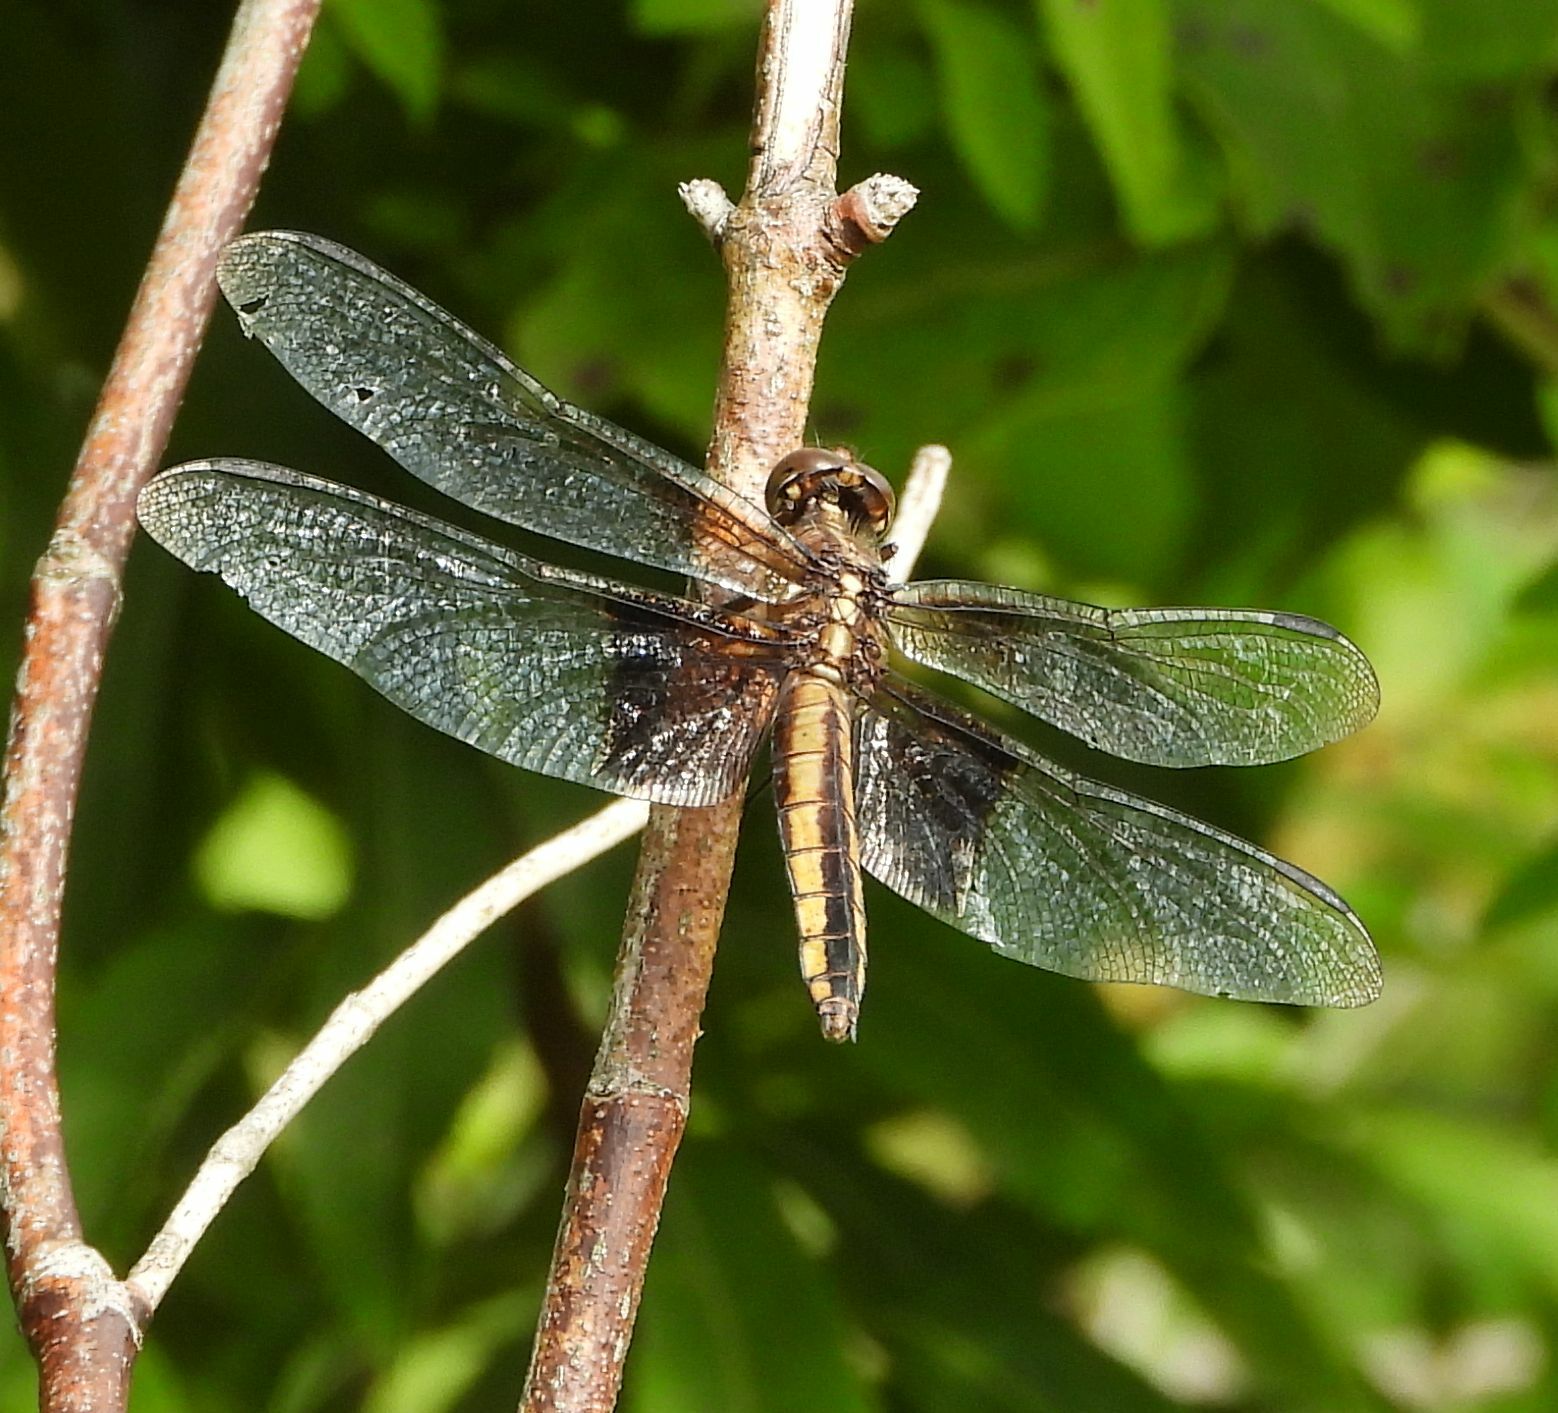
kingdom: Animalia
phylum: Arthropoda
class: Insecta
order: Odonata
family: Libellulidae
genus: Libellula
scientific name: Libellula luctuosa
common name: Widow skimmer
